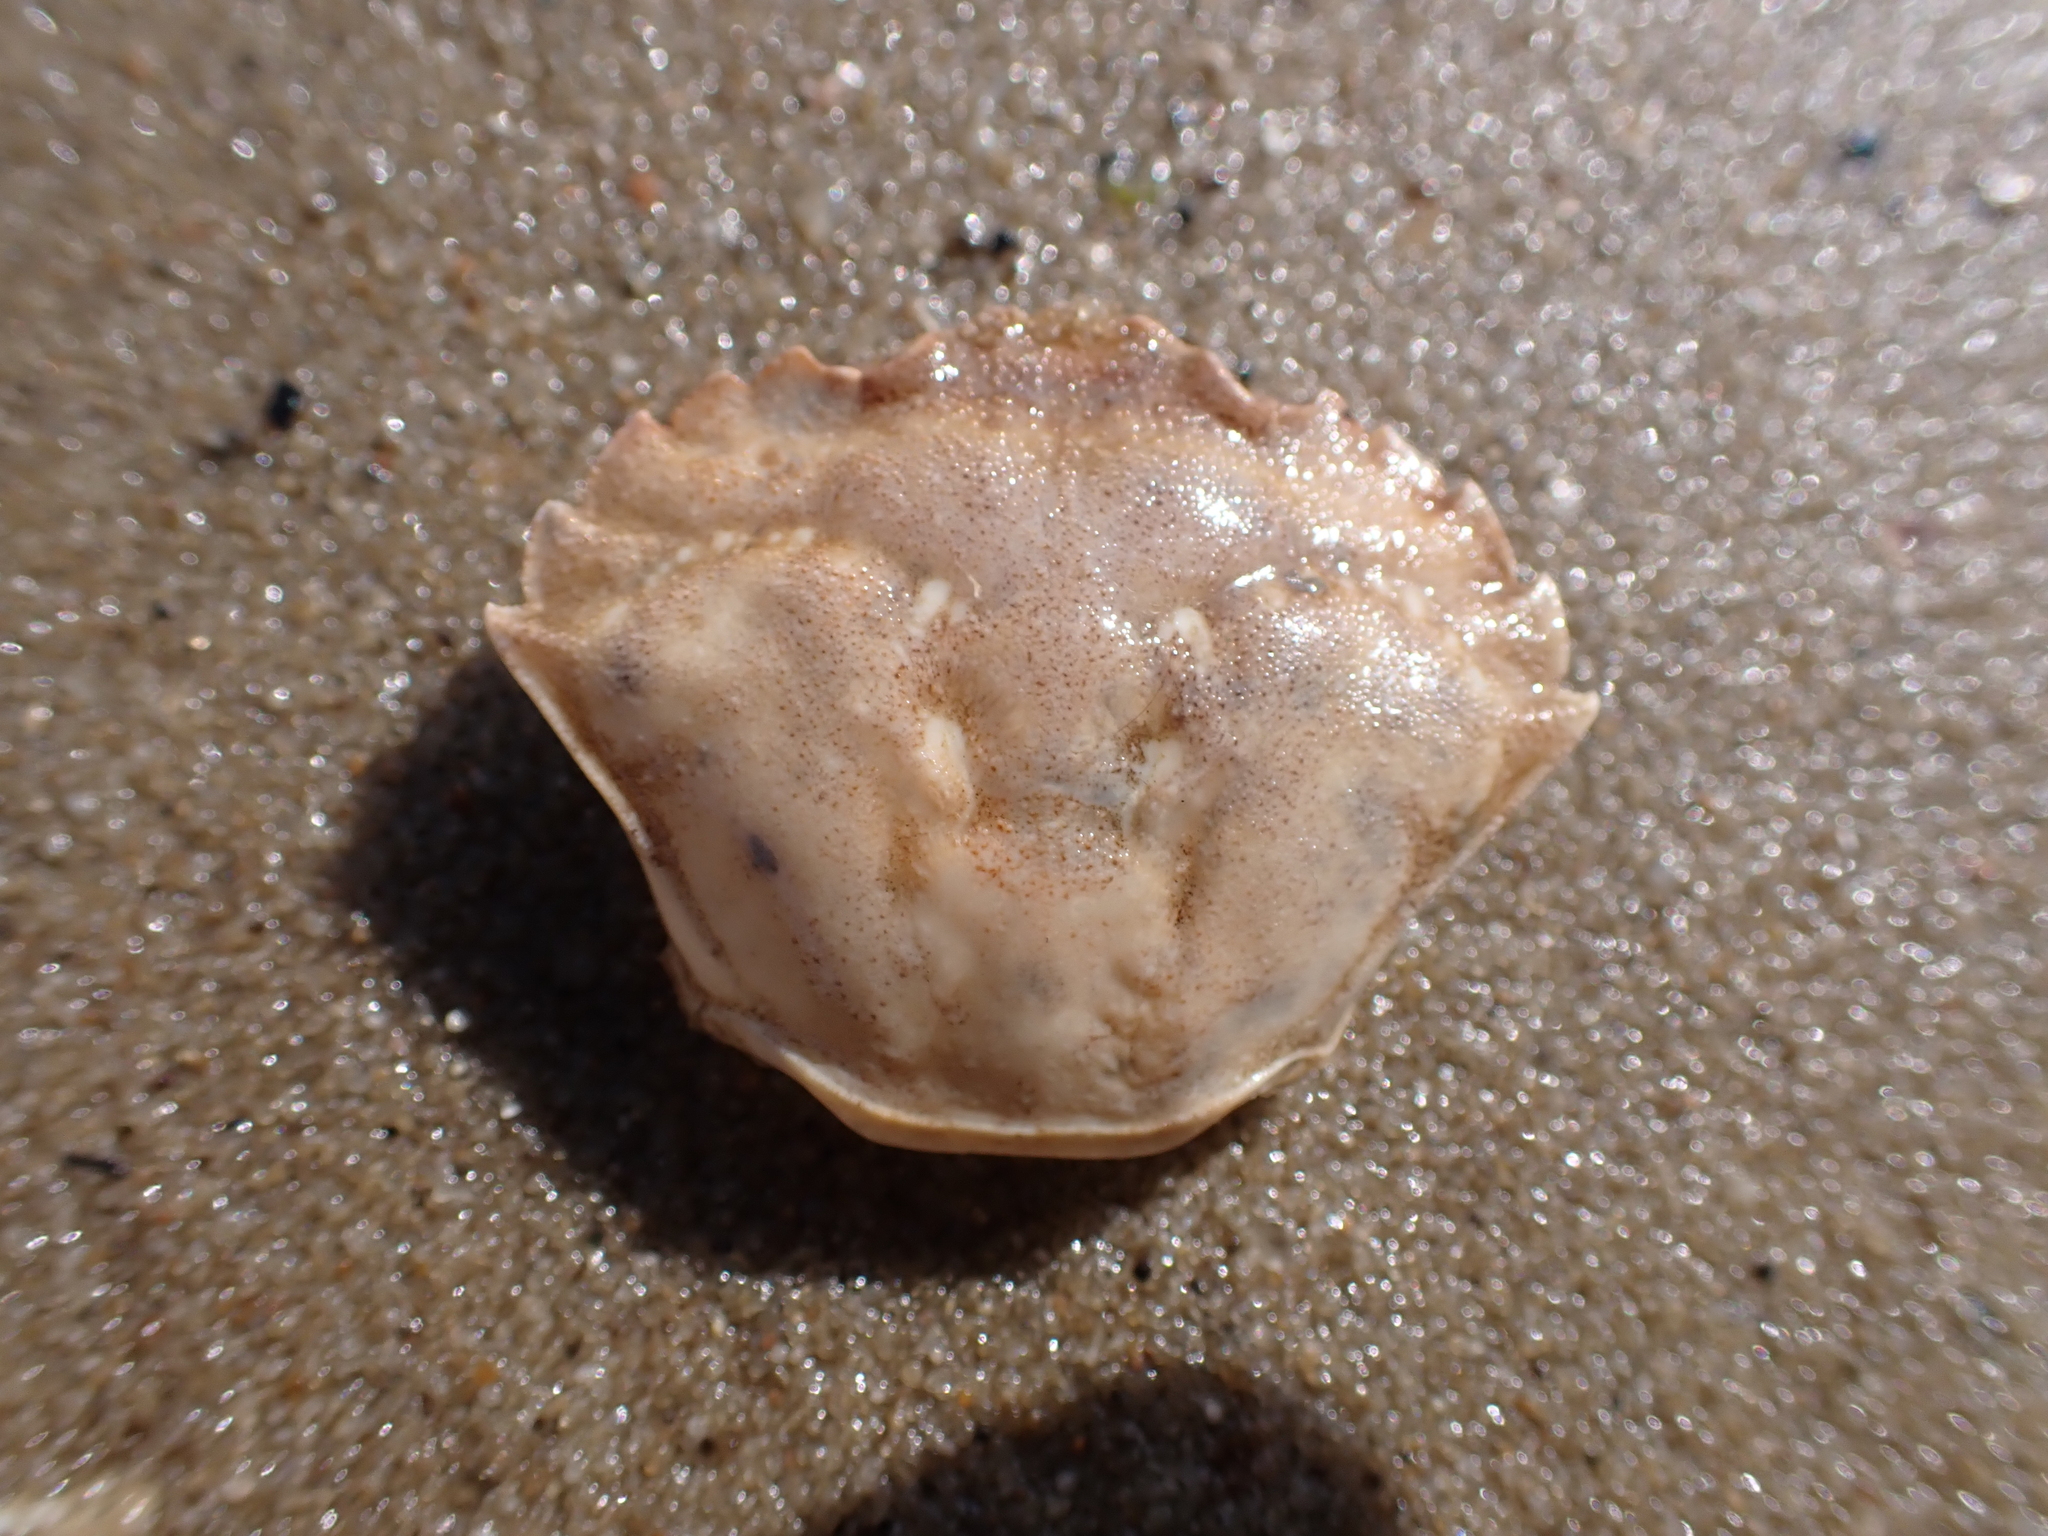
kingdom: Animalia
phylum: Arthropoda
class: Malacostraca
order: Decapoda
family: Carcinidae
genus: Carcinus
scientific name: Carcinus maenas
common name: European green crab
